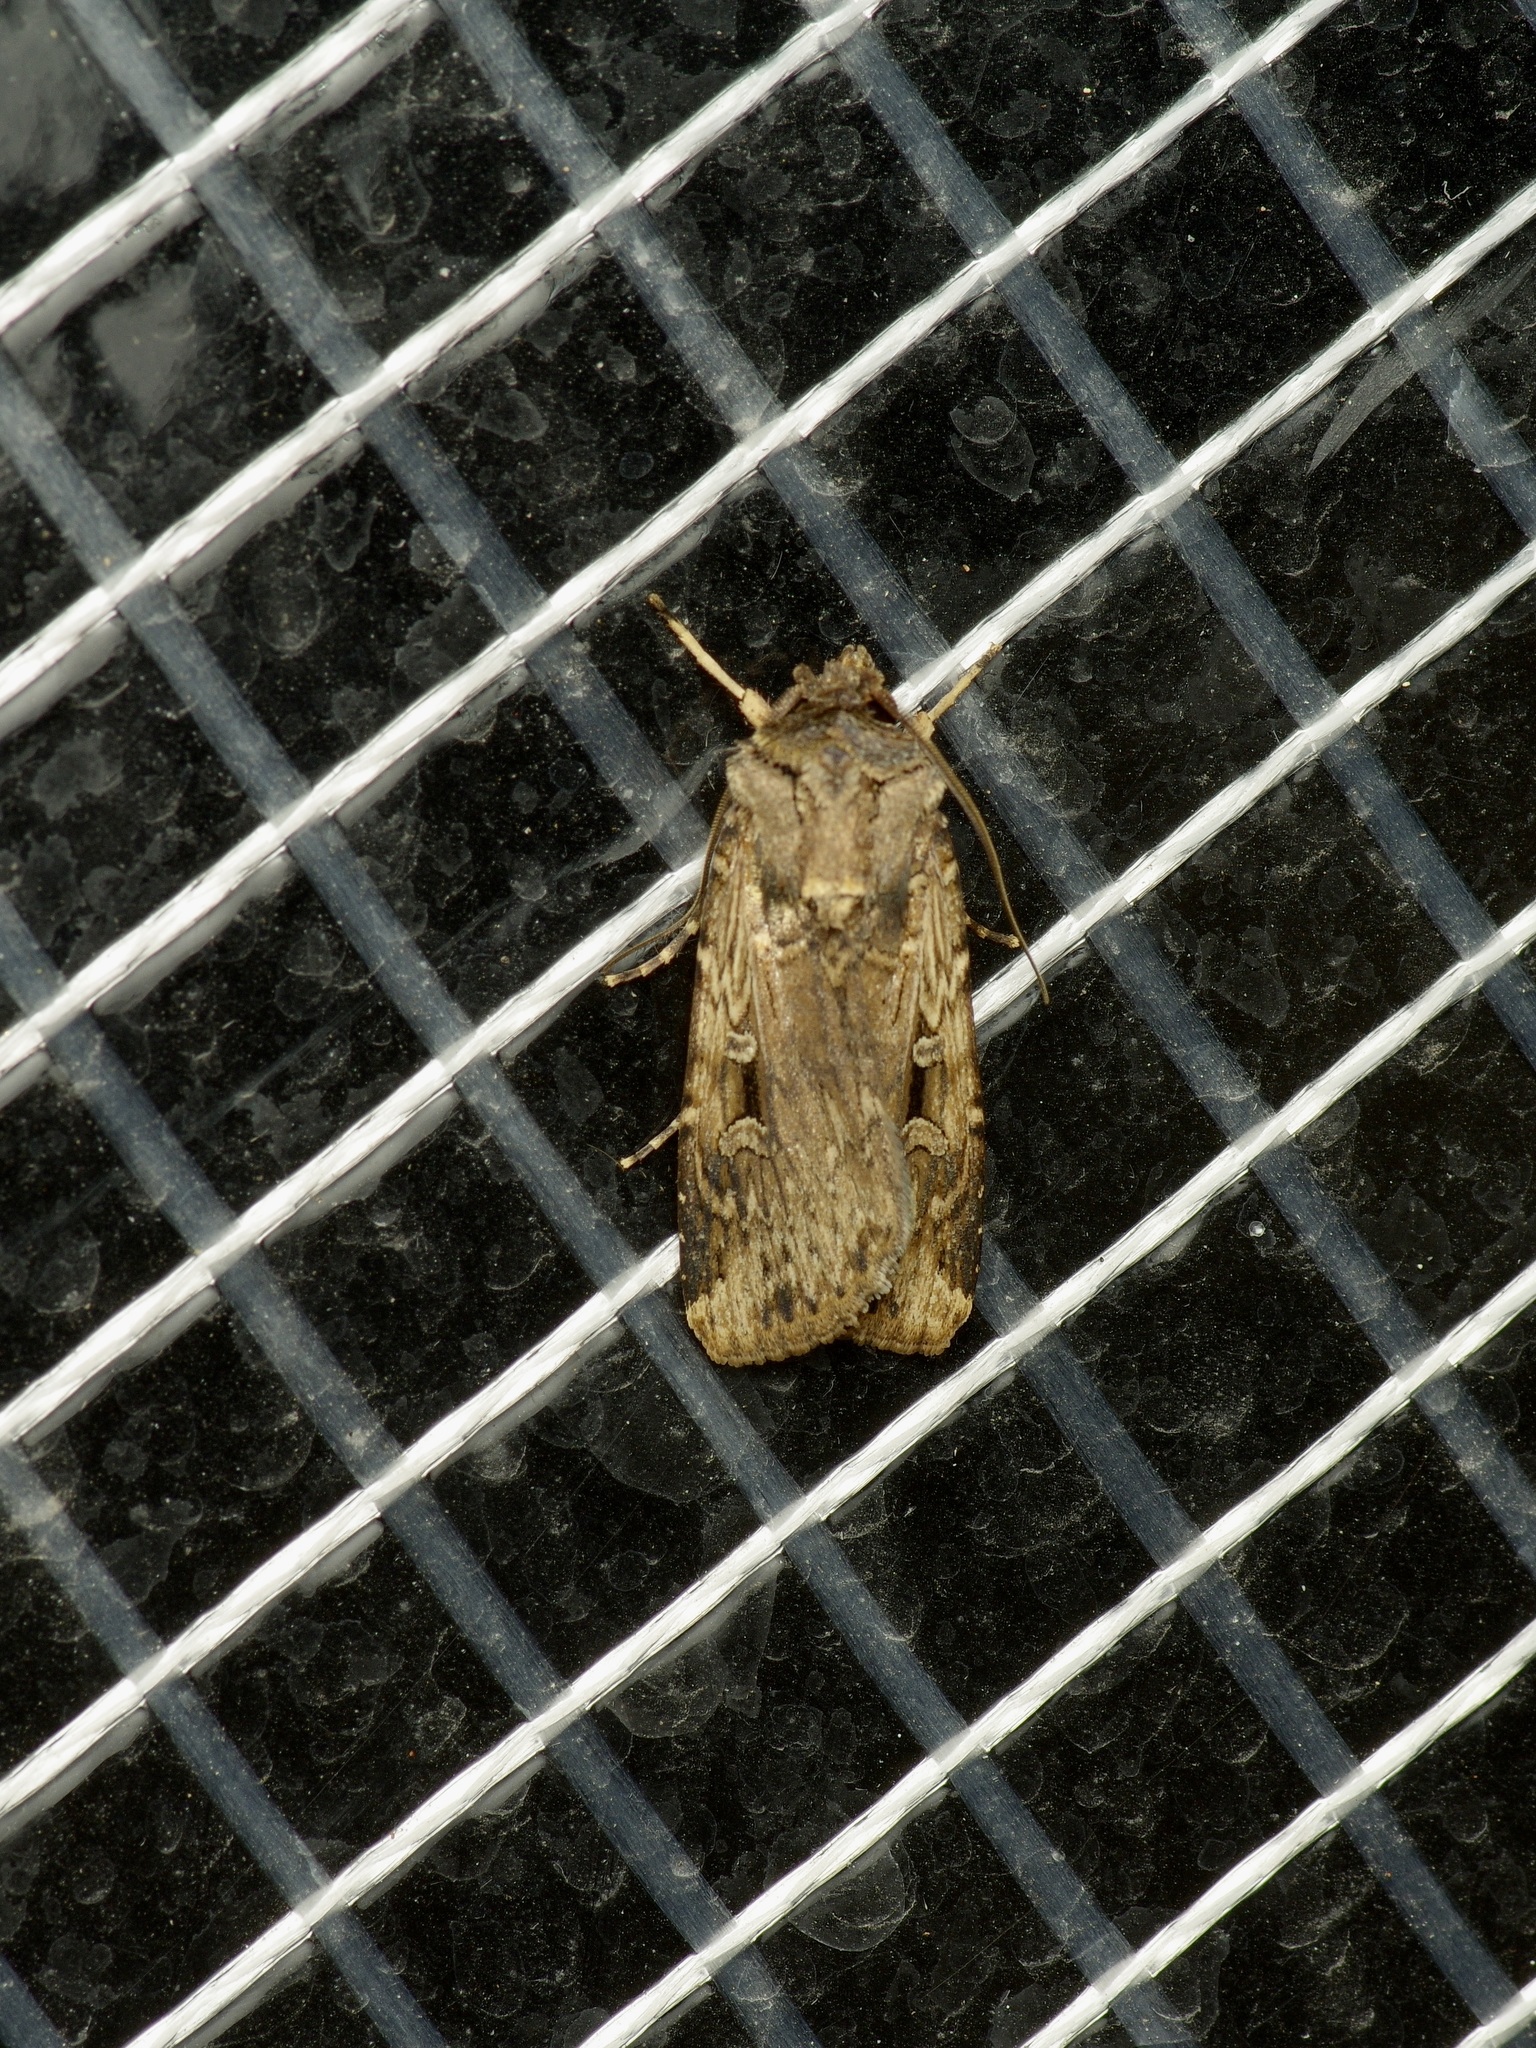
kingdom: Animalia
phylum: Arthropoda
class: Insecta
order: Lepidoptera
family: Noctuidae
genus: Feltia
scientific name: Feltia subterranea
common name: Granulate cutworm
